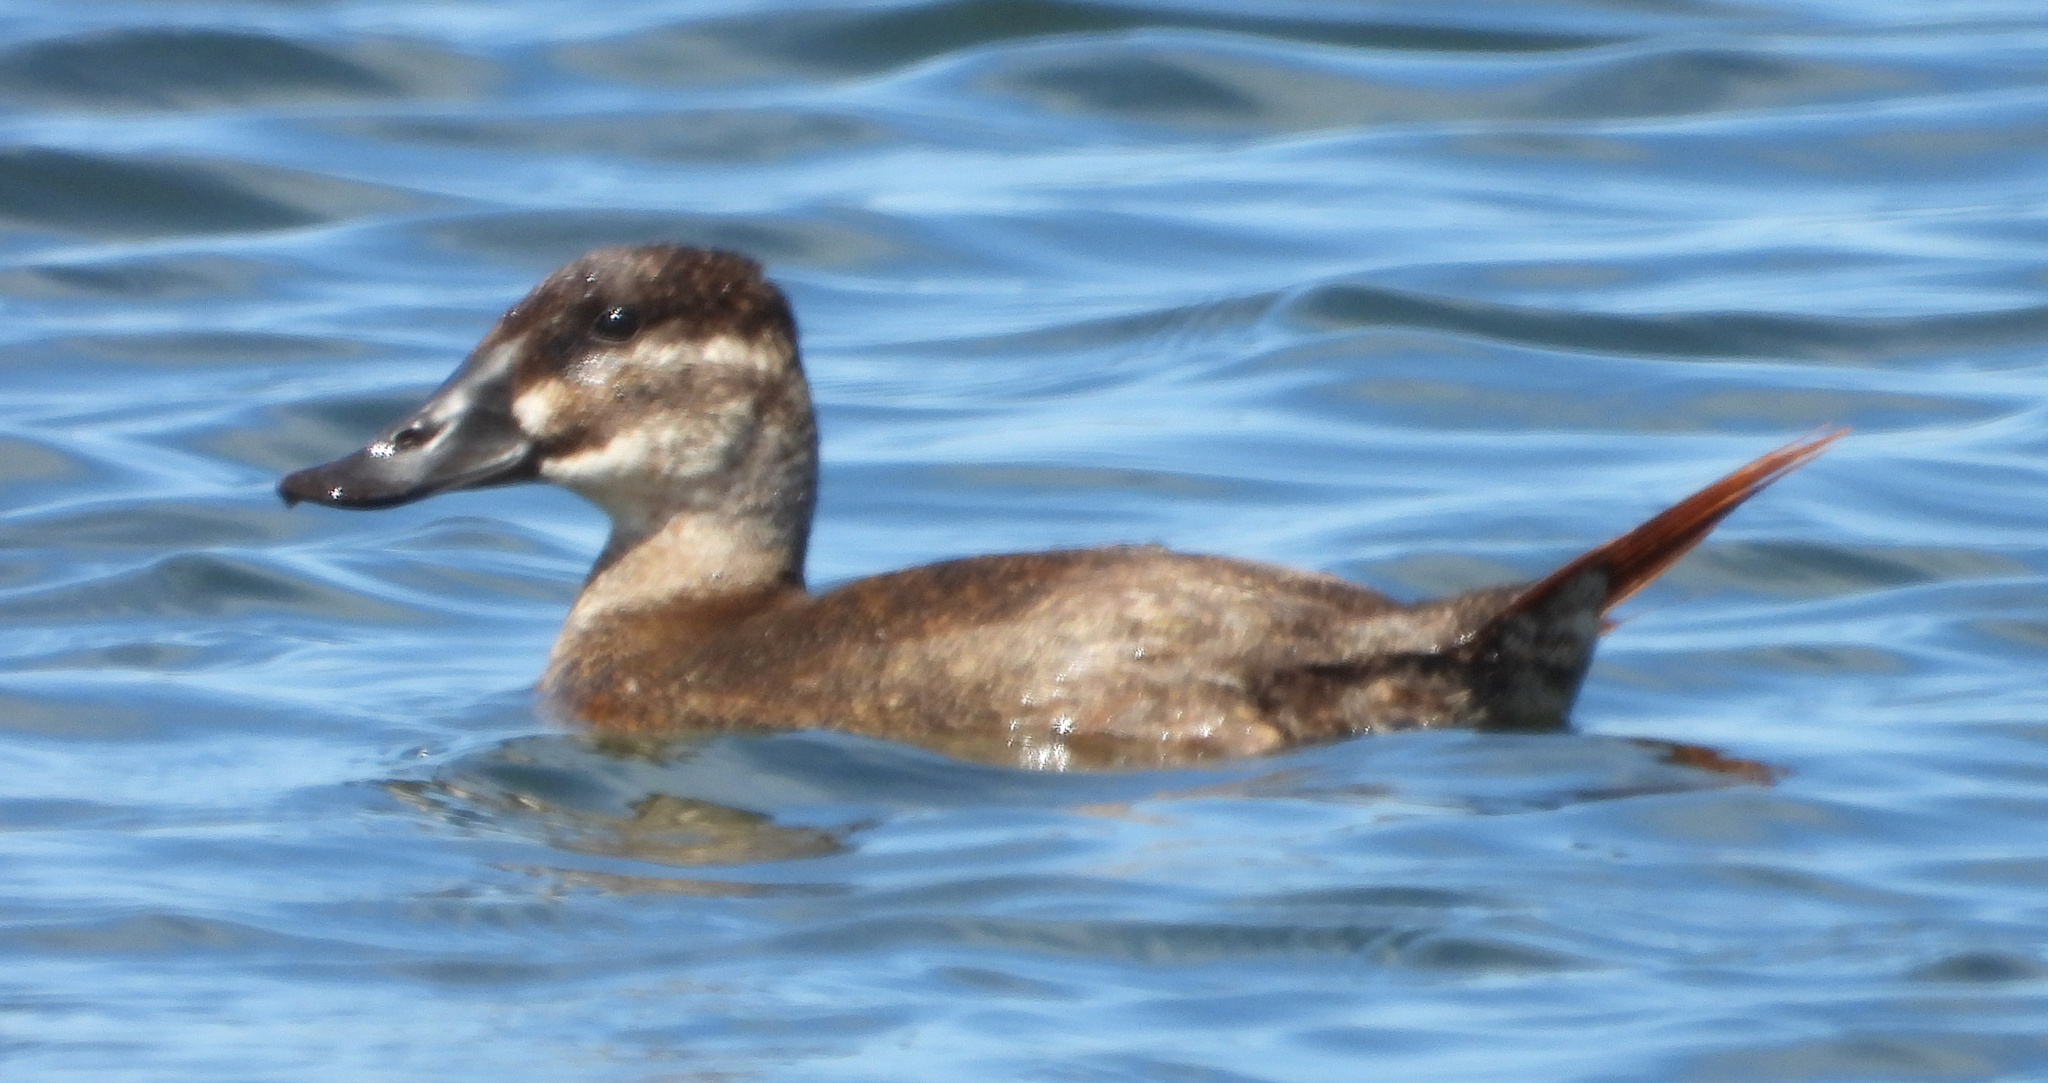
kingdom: Animalia
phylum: Chordata
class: Aves
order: Anseriformes
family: Anatidae
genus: Oxyura
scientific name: Oxyura maccoa
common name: Maccoa duck
